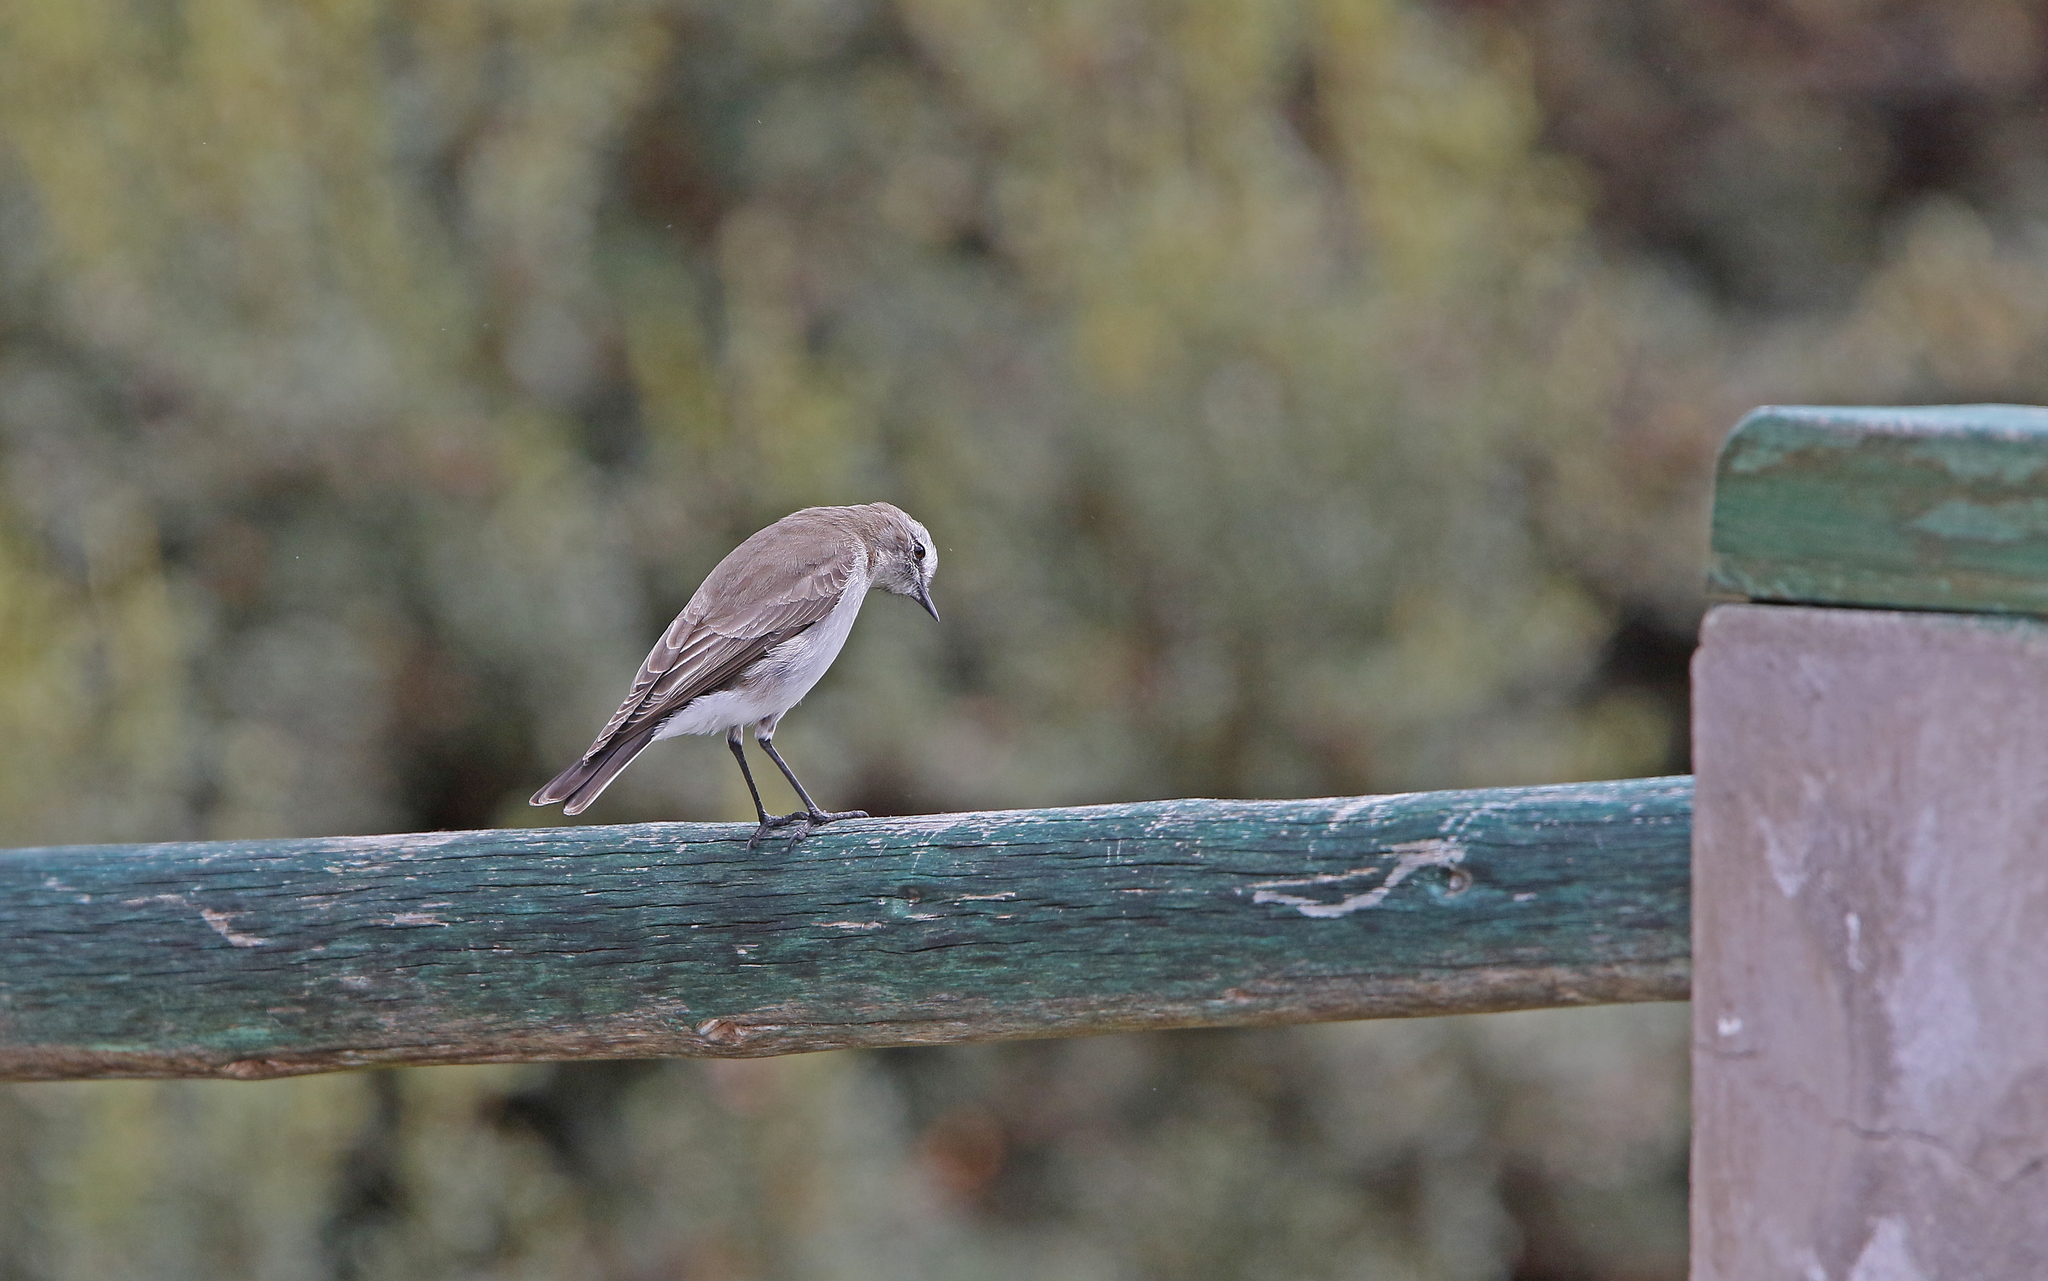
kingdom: Animalia
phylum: Chordata
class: Aves
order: Passeriformes
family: Tyrannidae
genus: Muscisaxicola
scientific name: Muscisaxicola alpinus
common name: Paramo ground tyrant
